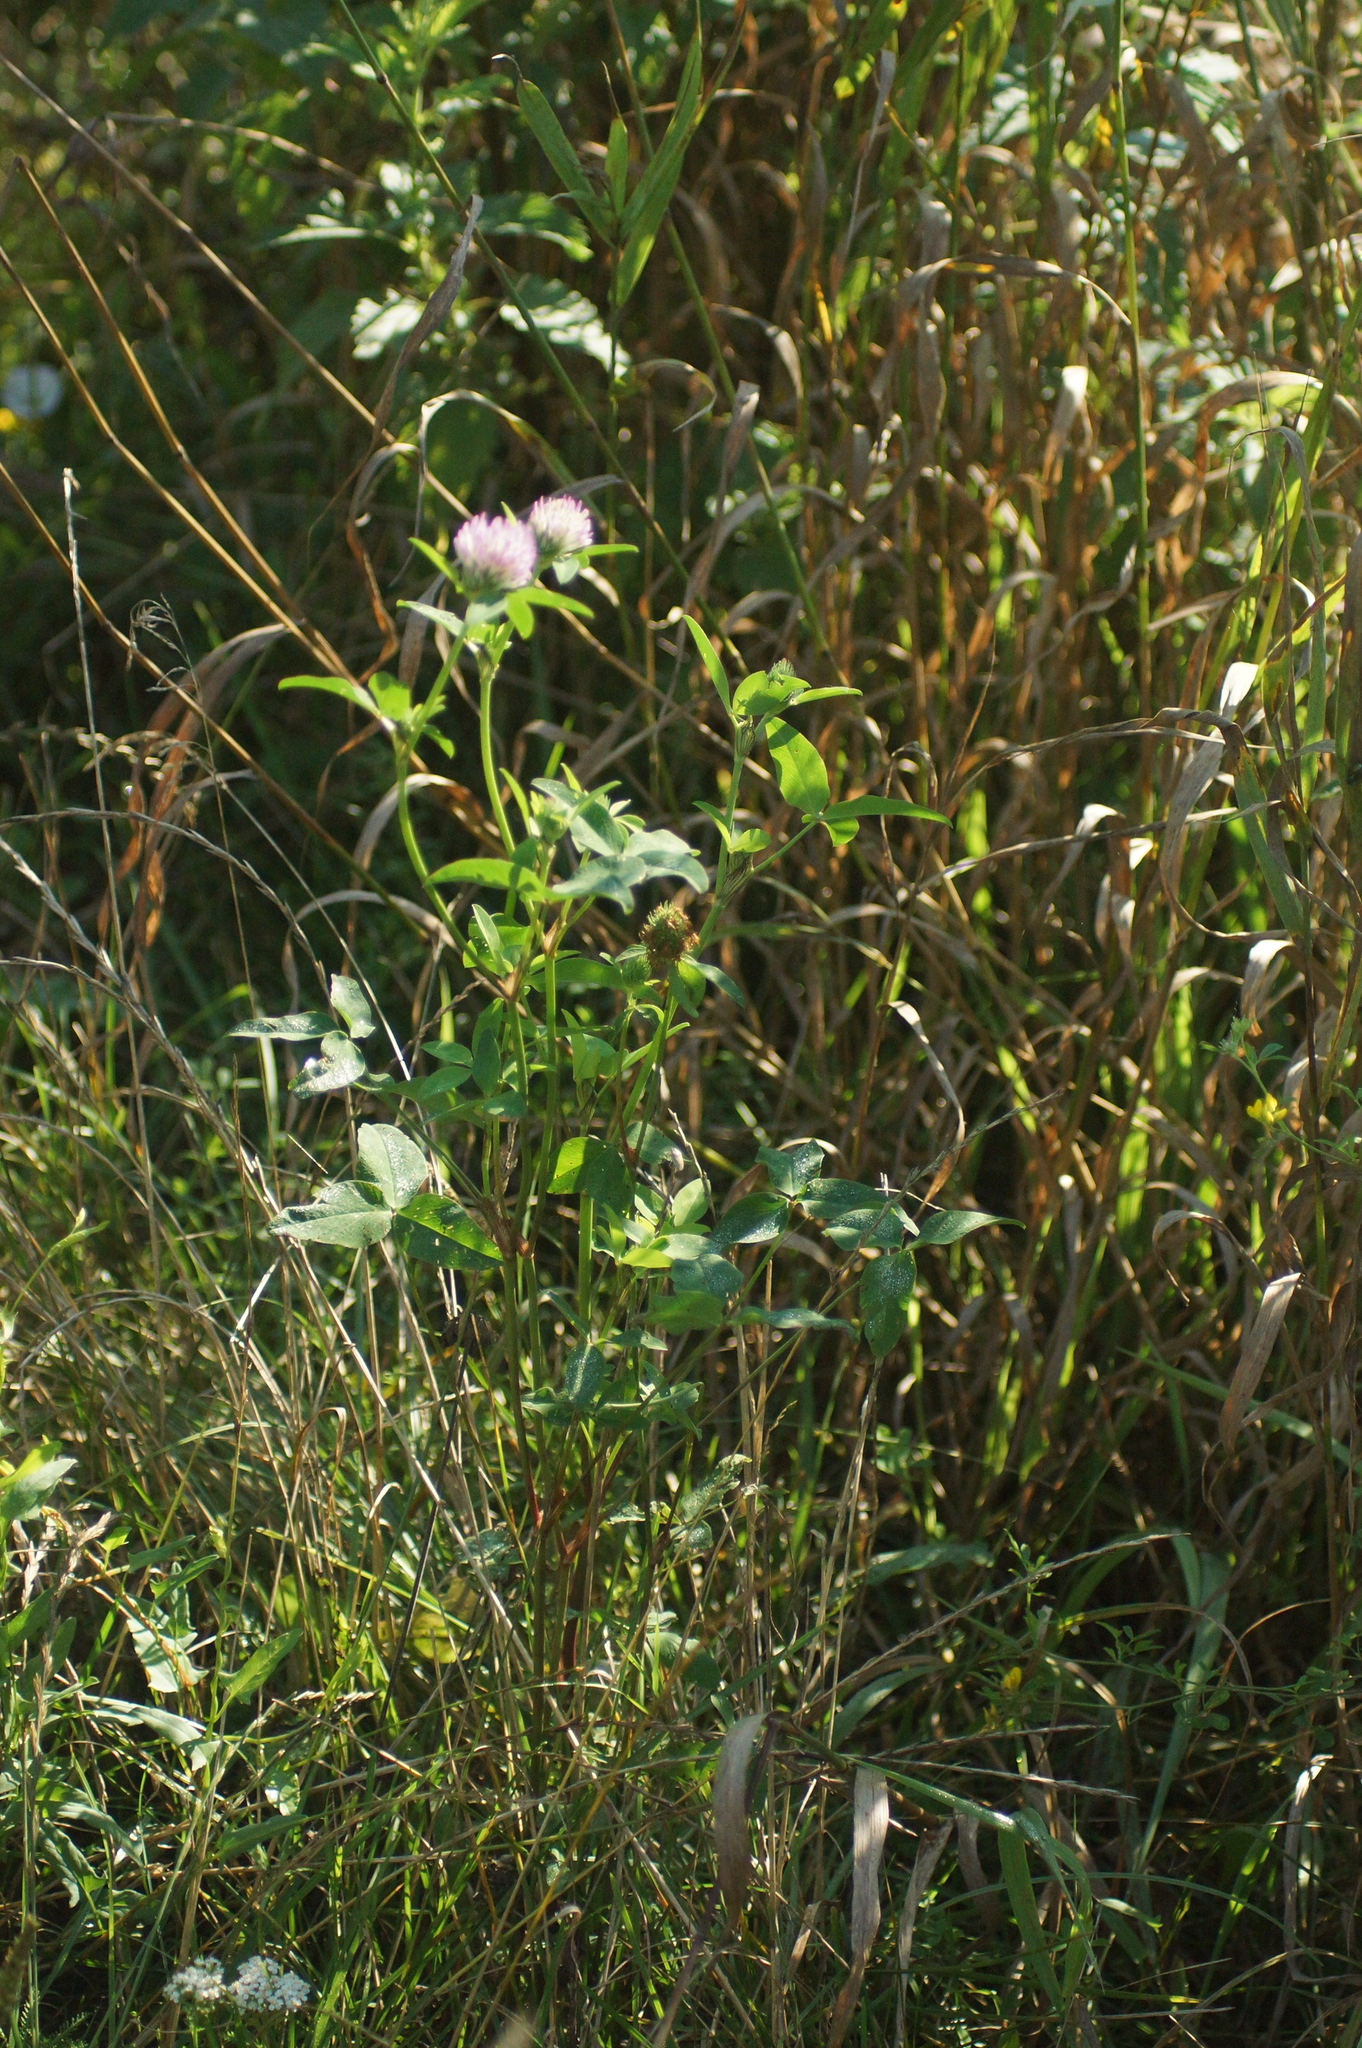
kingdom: Plantae
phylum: Tracheophyta
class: Magnoliopsida
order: Fabales
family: Fabaceae
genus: Trifolium
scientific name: Trifolium pratense
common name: Red clover
